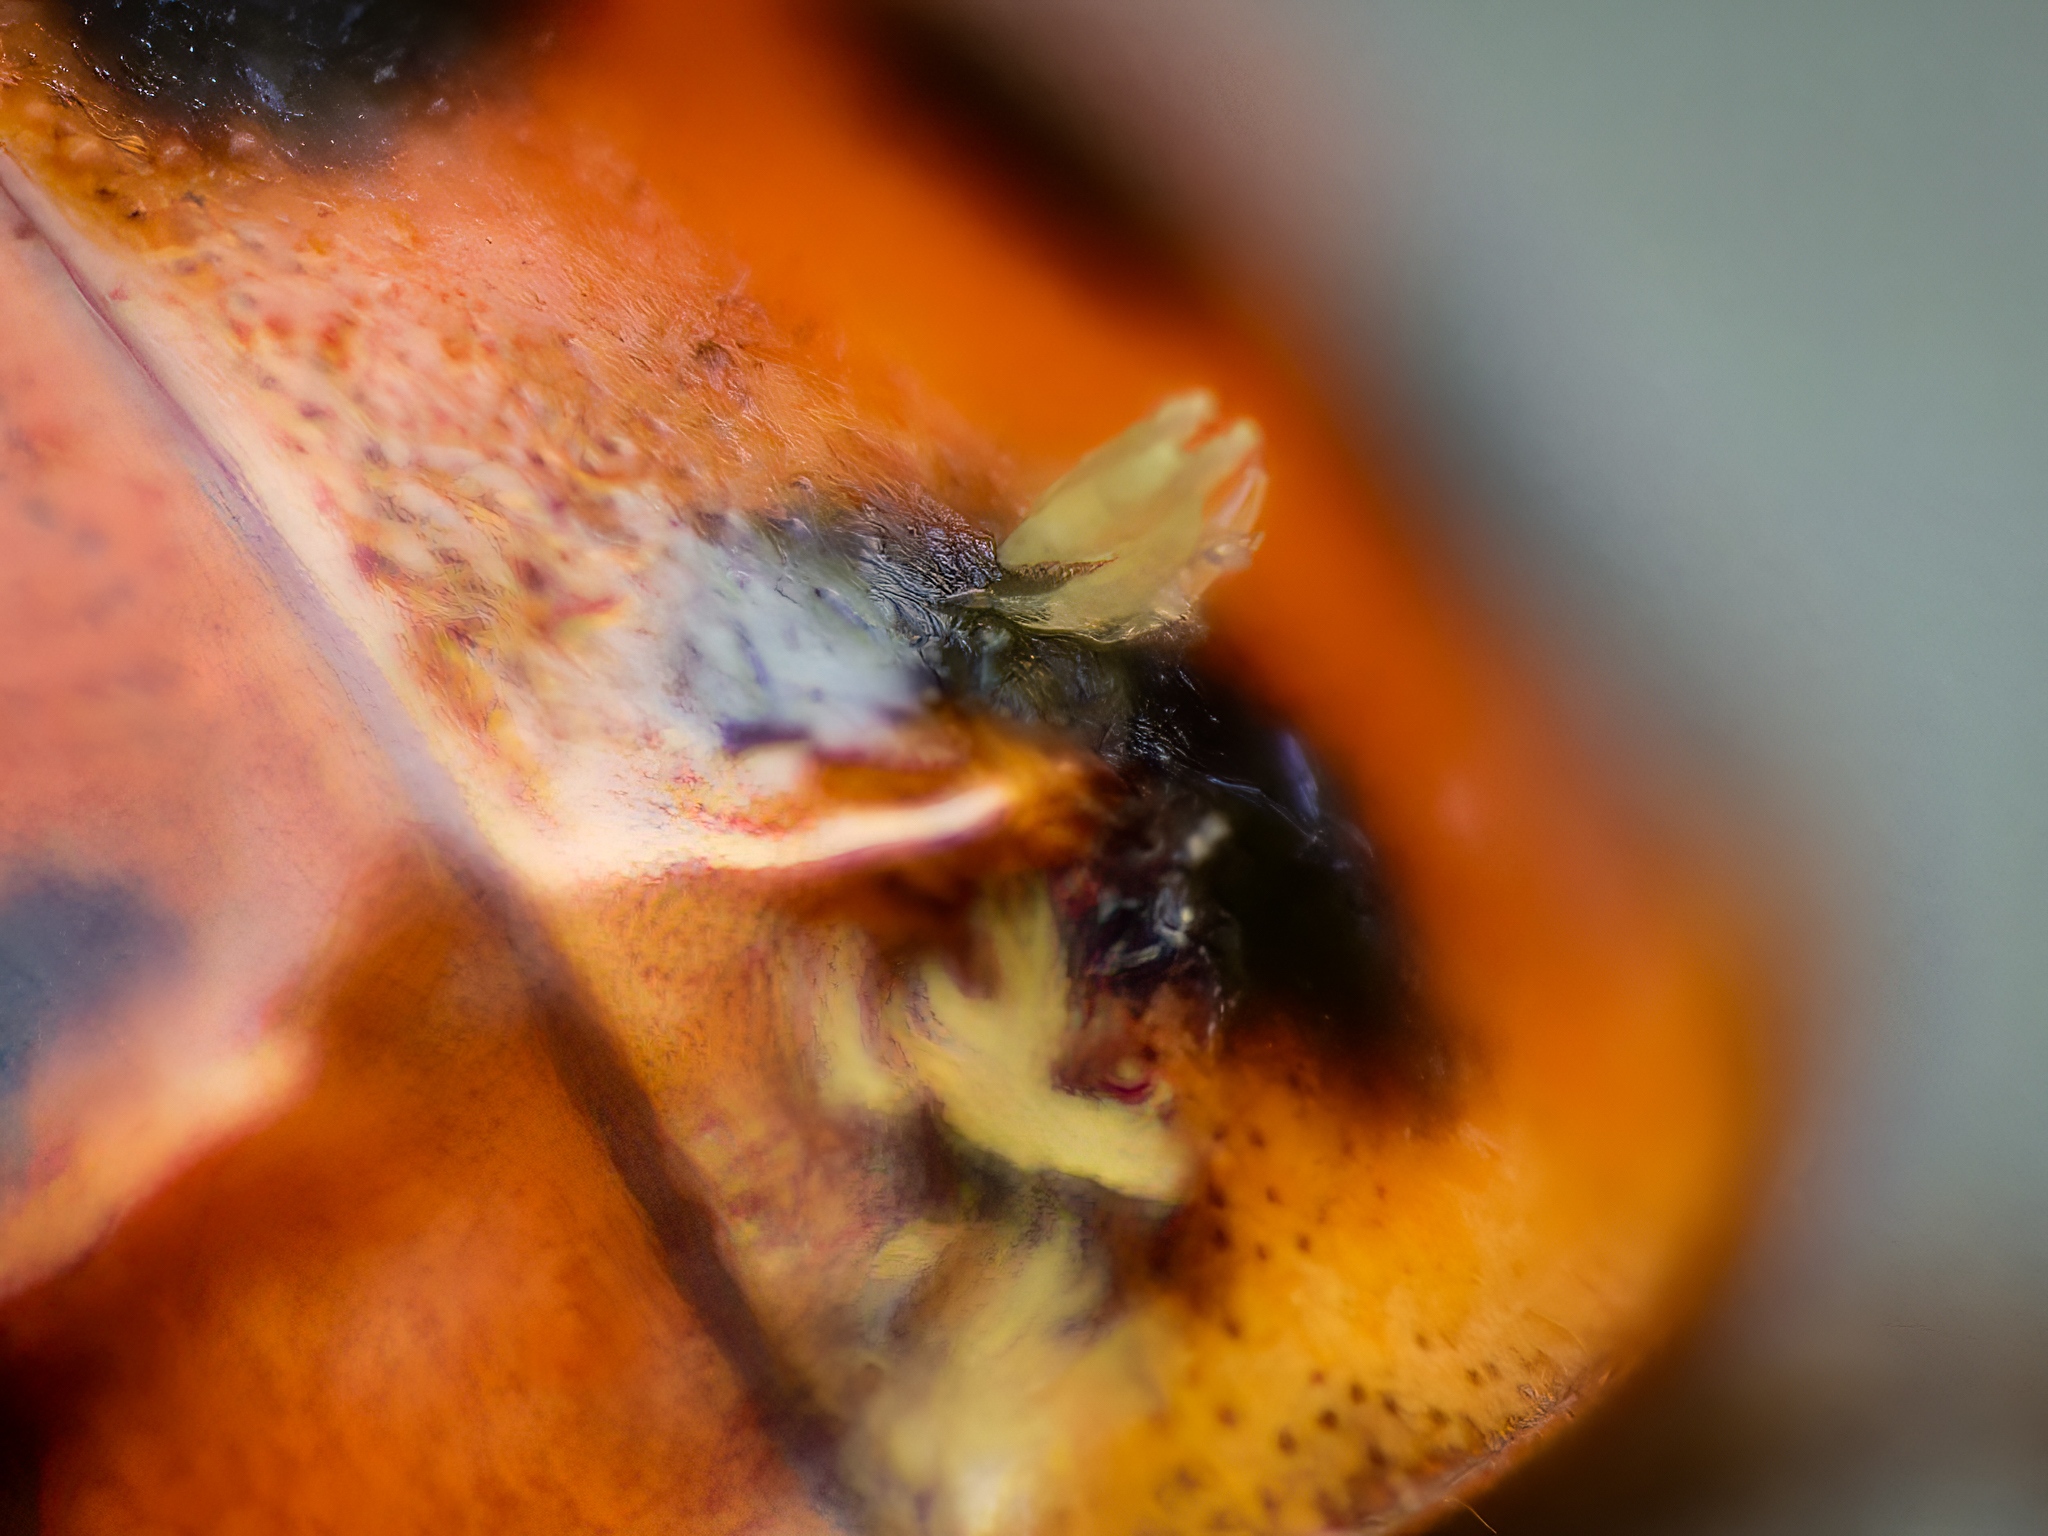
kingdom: Fungi
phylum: Ascomycota
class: Laboulbeniomycetes
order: Laboulbeniales
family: Laboulbeniaceae
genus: Hesperomyces
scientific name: Hesperomyces harmoniae
